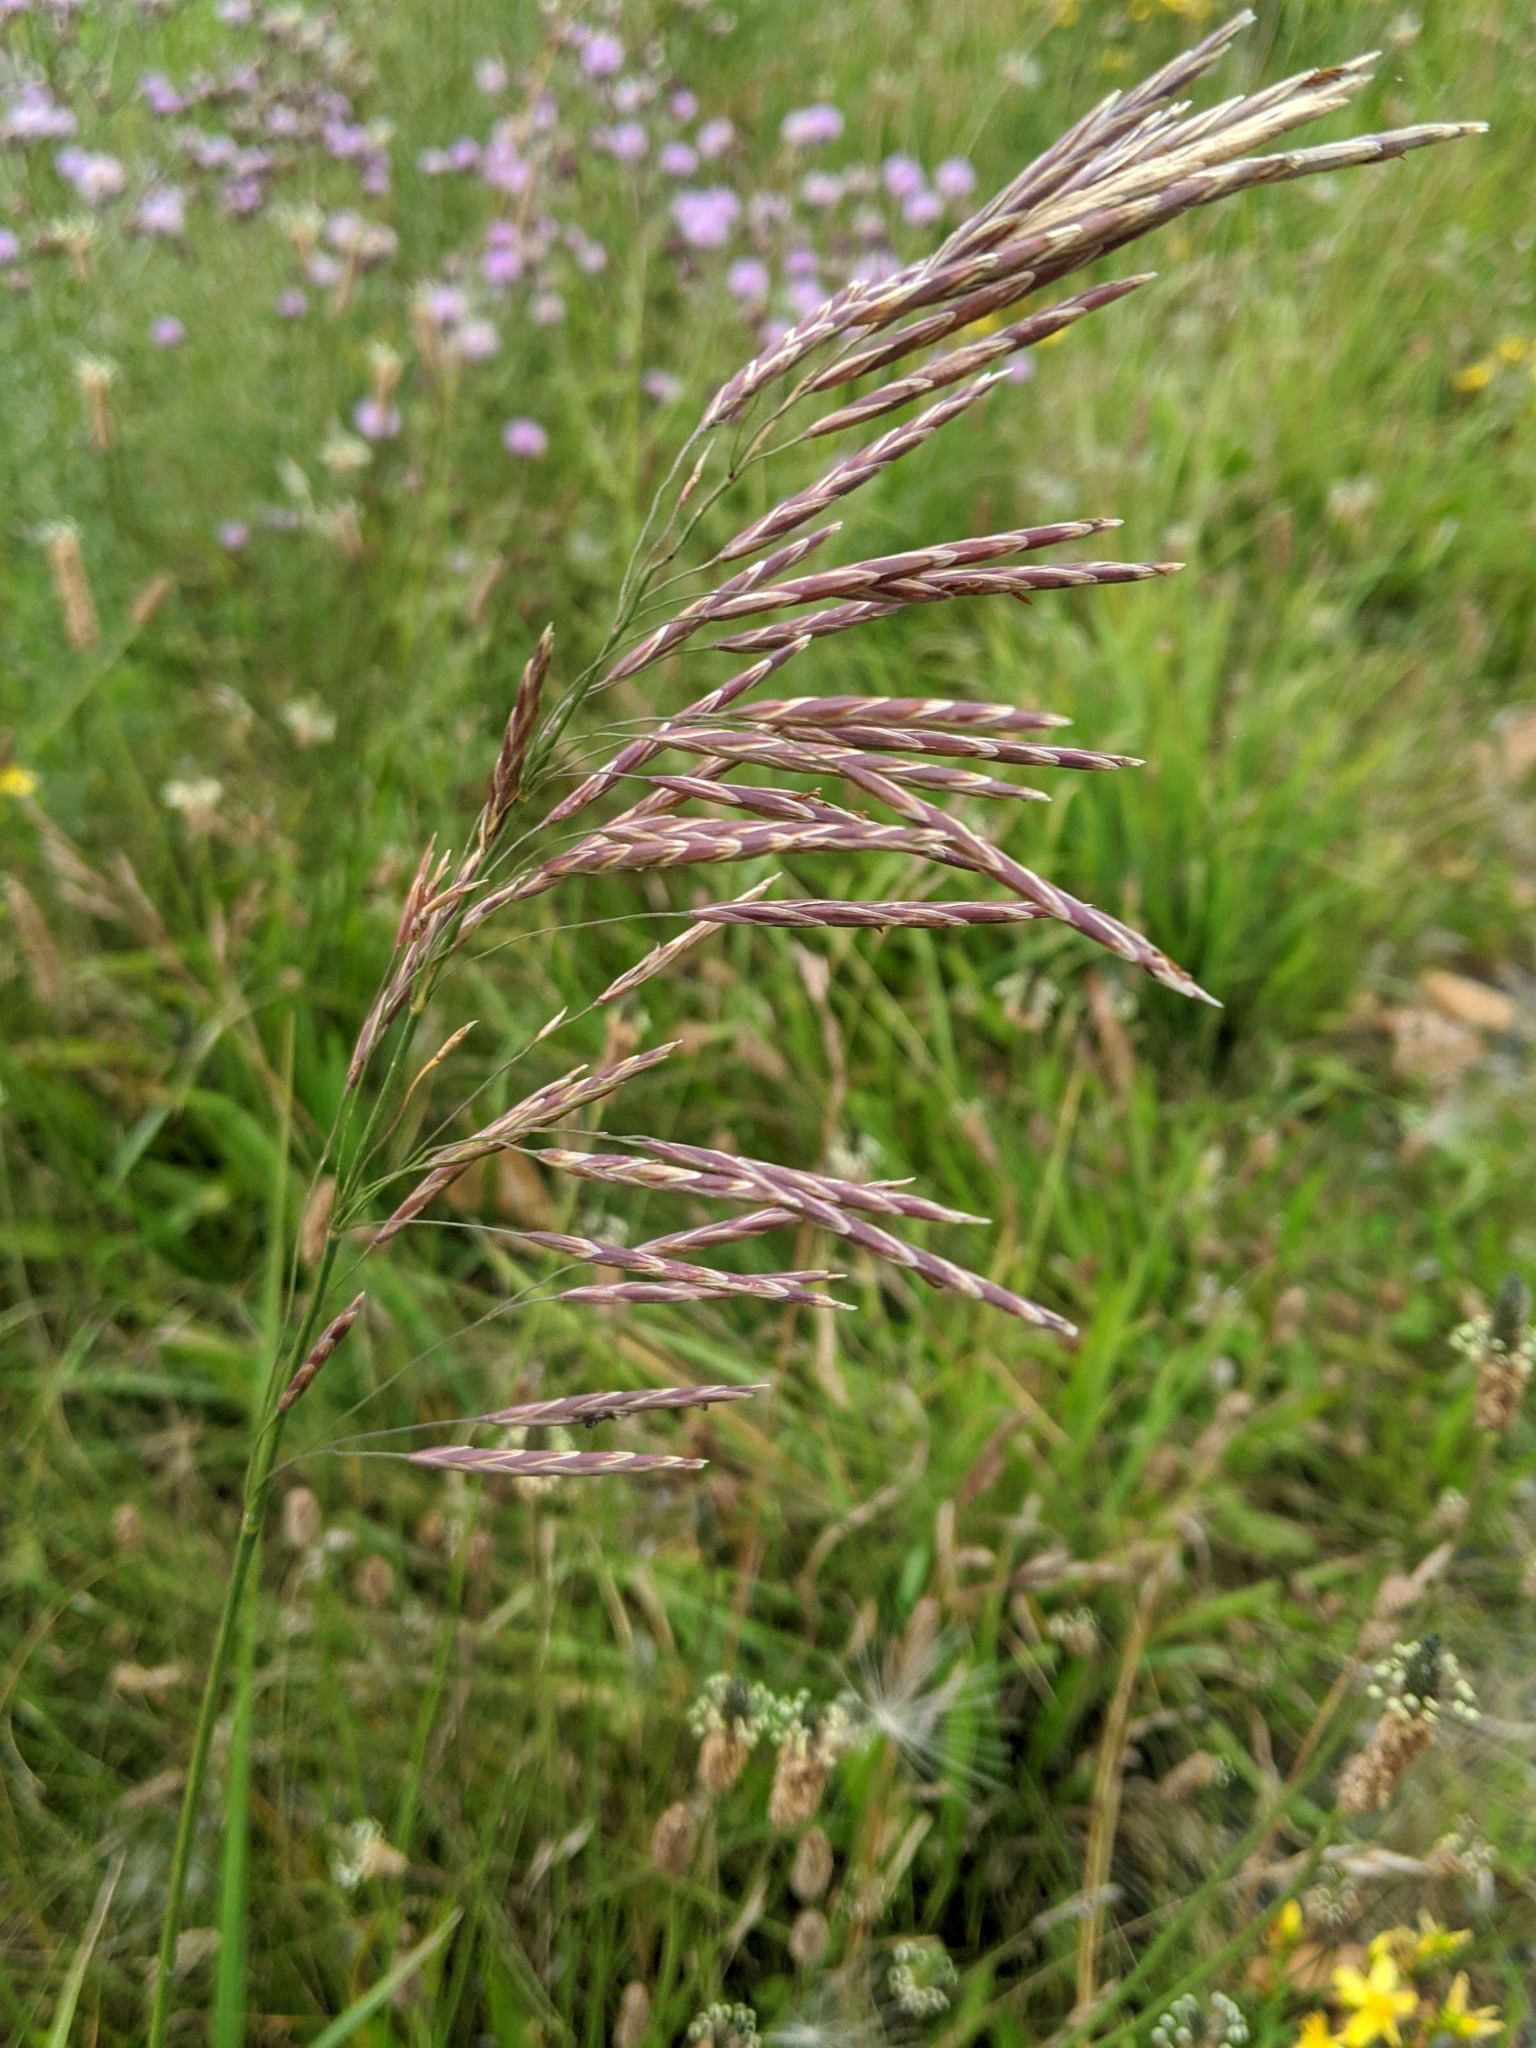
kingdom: Plantae
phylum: Tracheophyta
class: Liliopsida
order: Poales
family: Poaceae
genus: Bromus
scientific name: Bromus inermis
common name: Smooth brome
